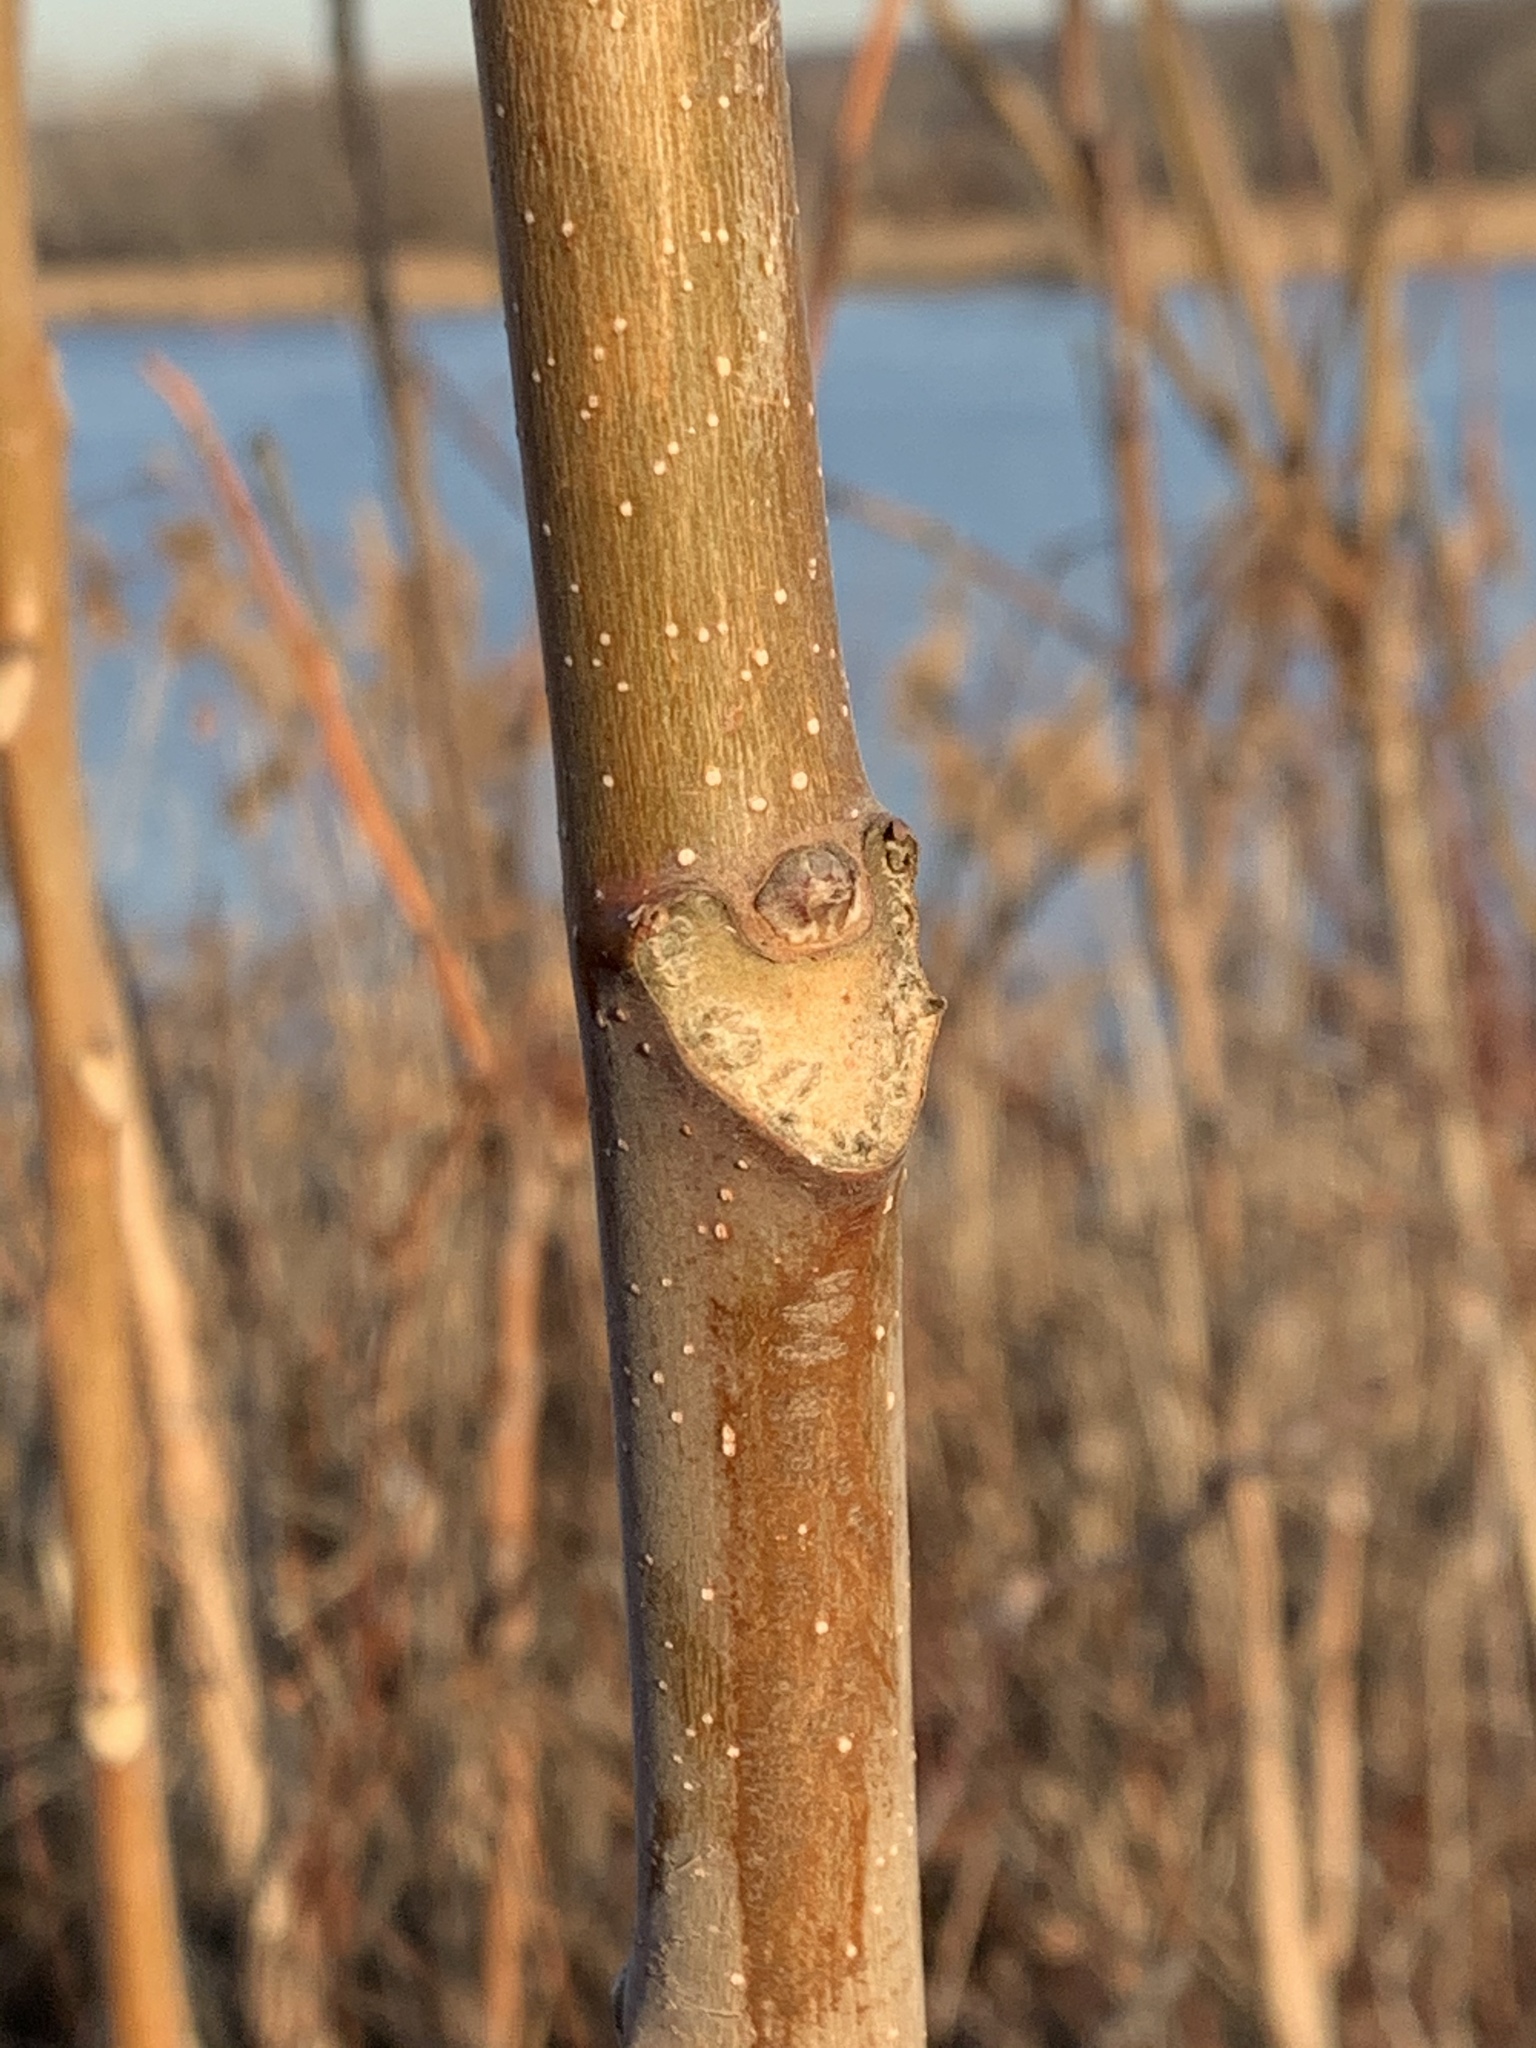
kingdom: Plantae
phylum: Tracheophyta
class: Magnoliopsida
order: Sapindales
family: Simaroubaceae
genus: Ailanthus
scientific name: Ailanthus altissima
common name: Tree-of-heaven
